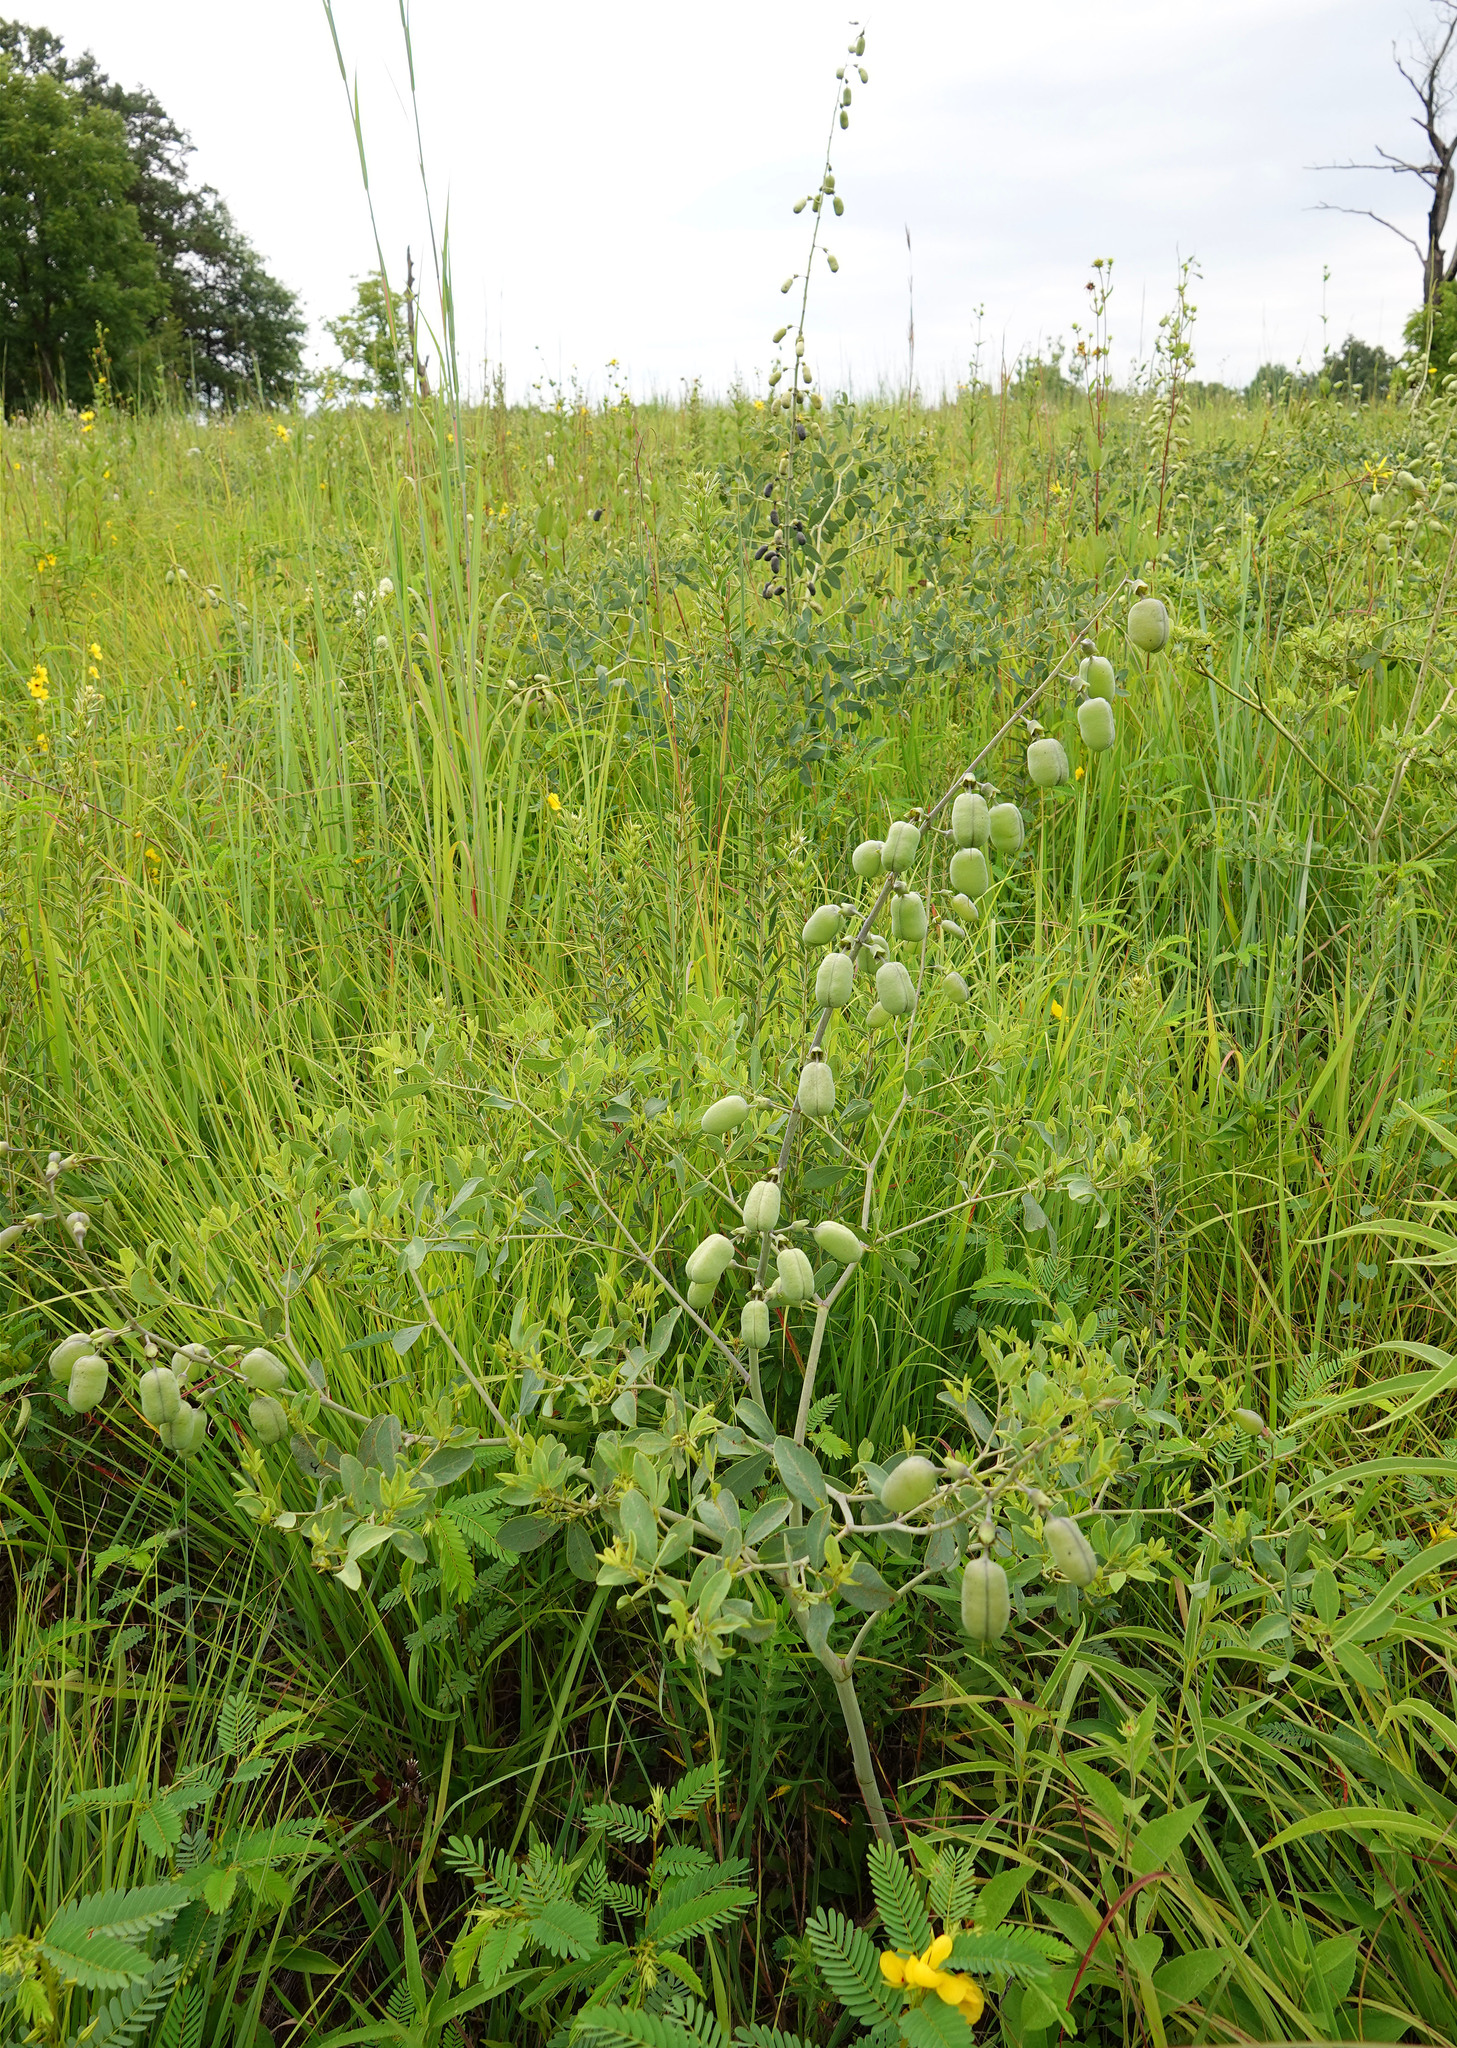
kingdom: Plantae
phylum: Tracheophyta
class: Magnoliopsida
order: Fabales
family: Fabaceae
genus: Baptisia
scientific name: Baptisia alba
